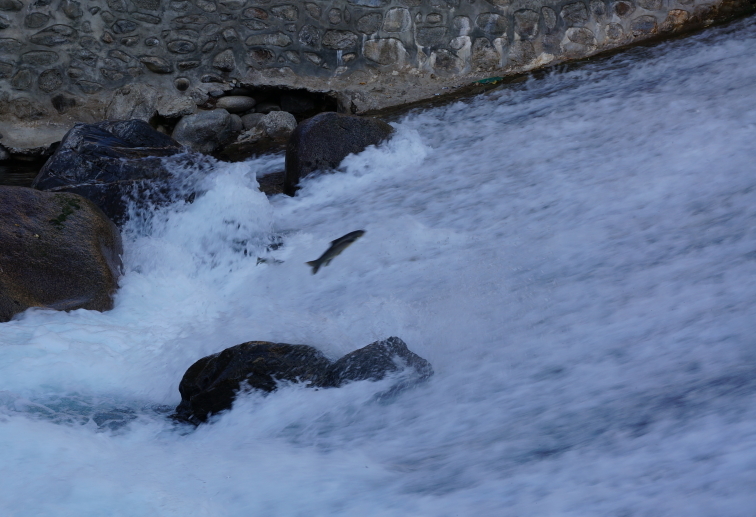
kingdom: Animalia
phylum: Chordata
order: Cypriniformes
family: Cyprinidae
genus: Schizothorax
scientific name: Schizothorax plagiostomus
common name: Snow trout
